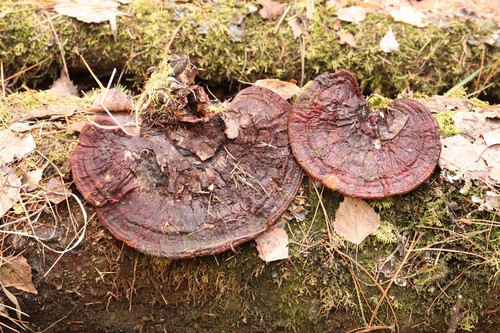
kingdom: Fungi
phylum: Basidiomycota
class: Agaricomycetes
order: Polyporales
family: Polyporaceae
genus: Ganoderma
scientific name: Ganoderma lucidum
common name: Lacquered bracket
